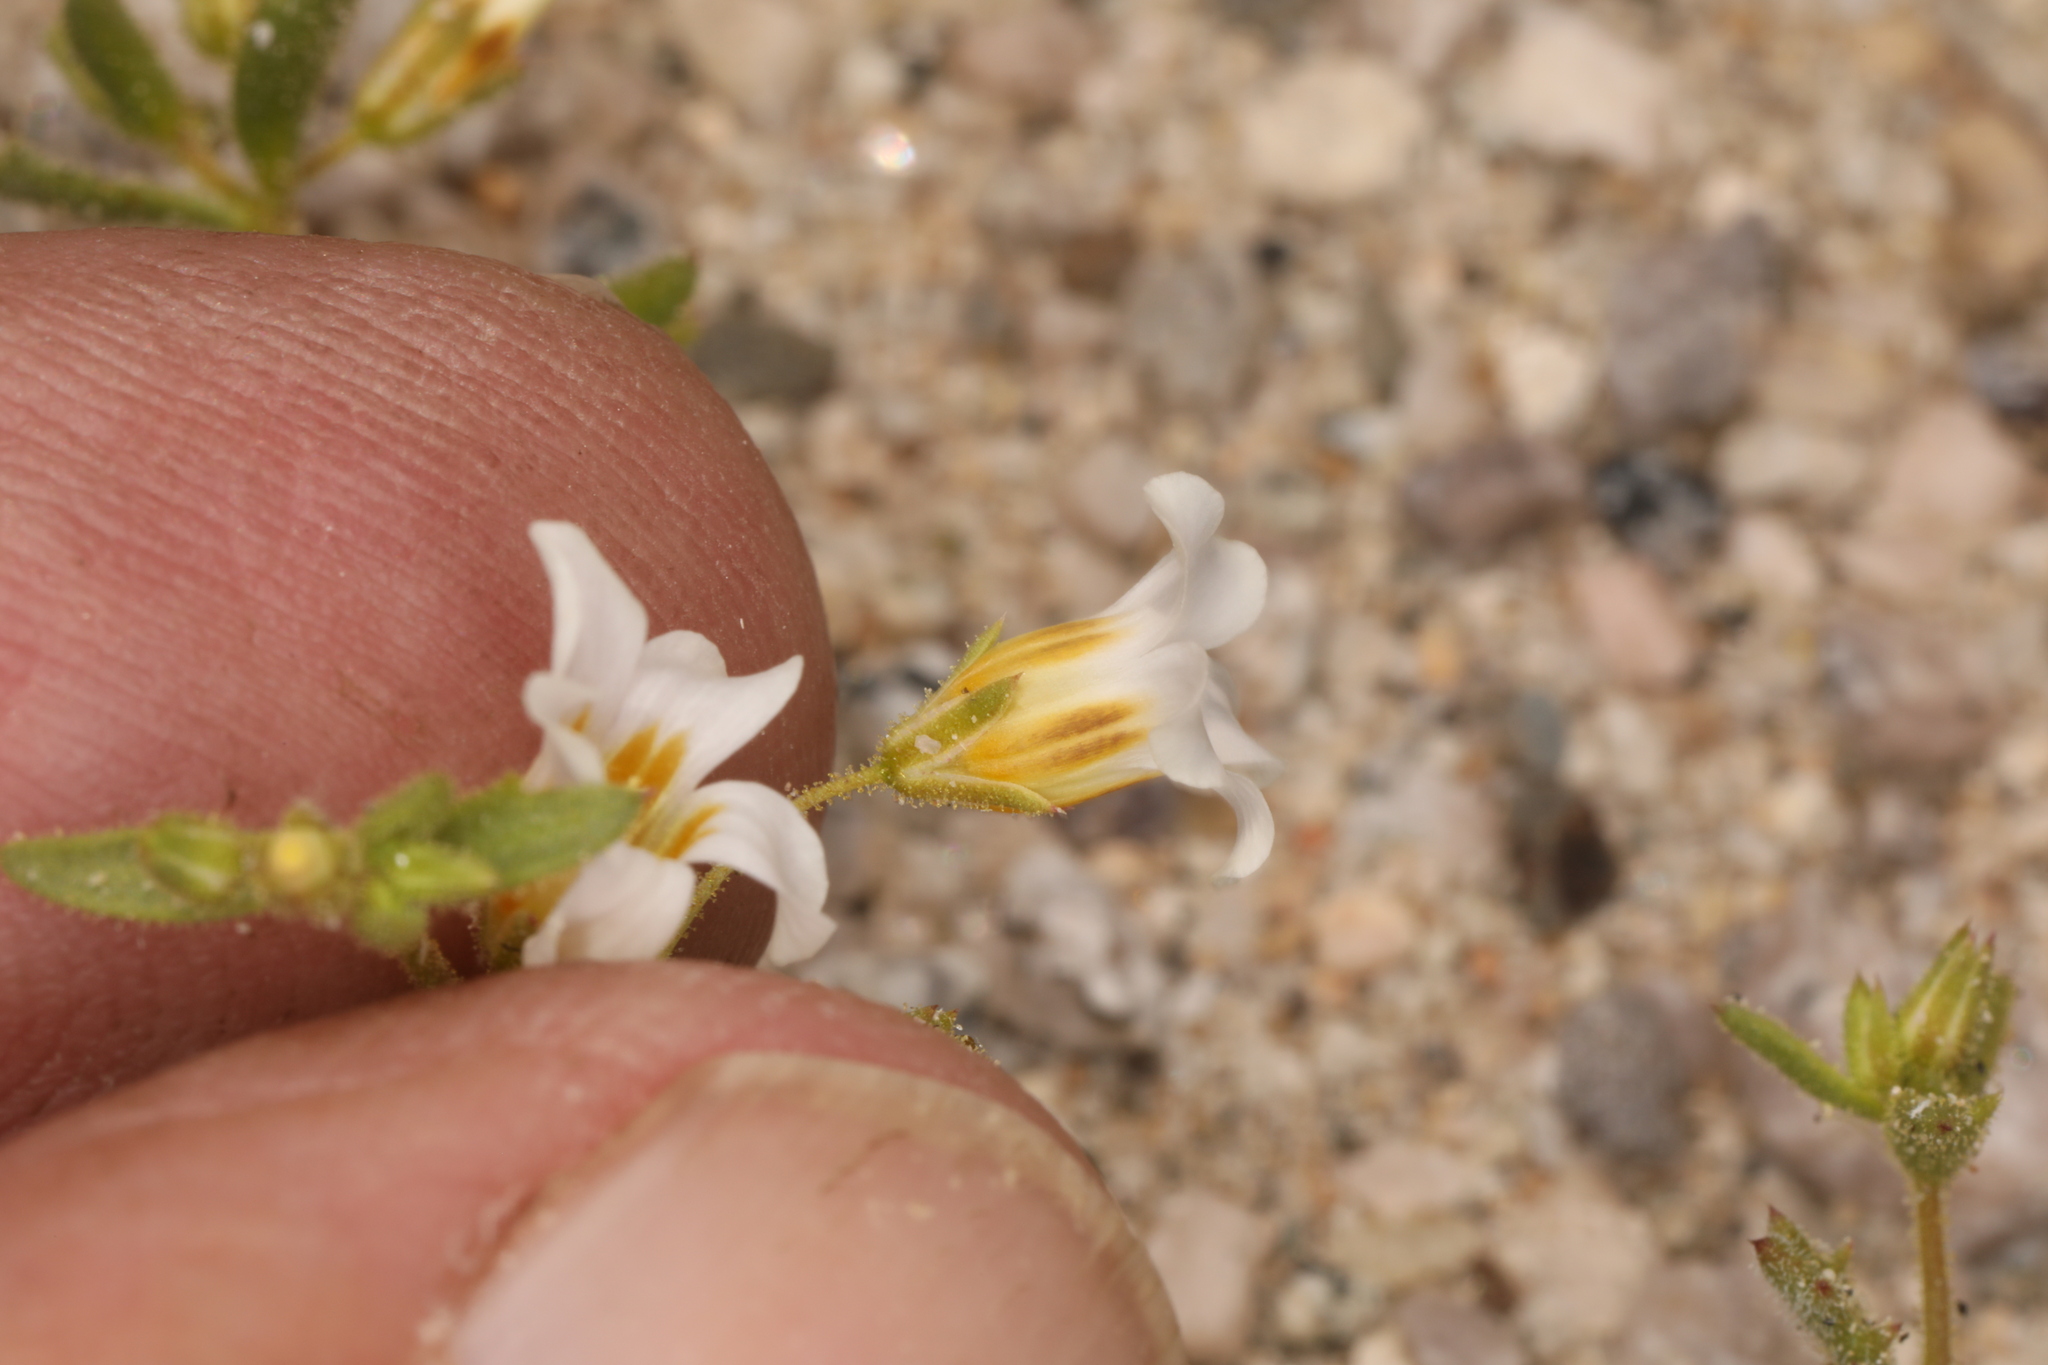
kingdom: Plantae
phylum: Tracheophyta
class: Magnoliopsida
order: Ericales
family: Polemoniaceae
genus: Linanthus
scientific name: Linanthus campanulatus
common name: Bellshape gilia
